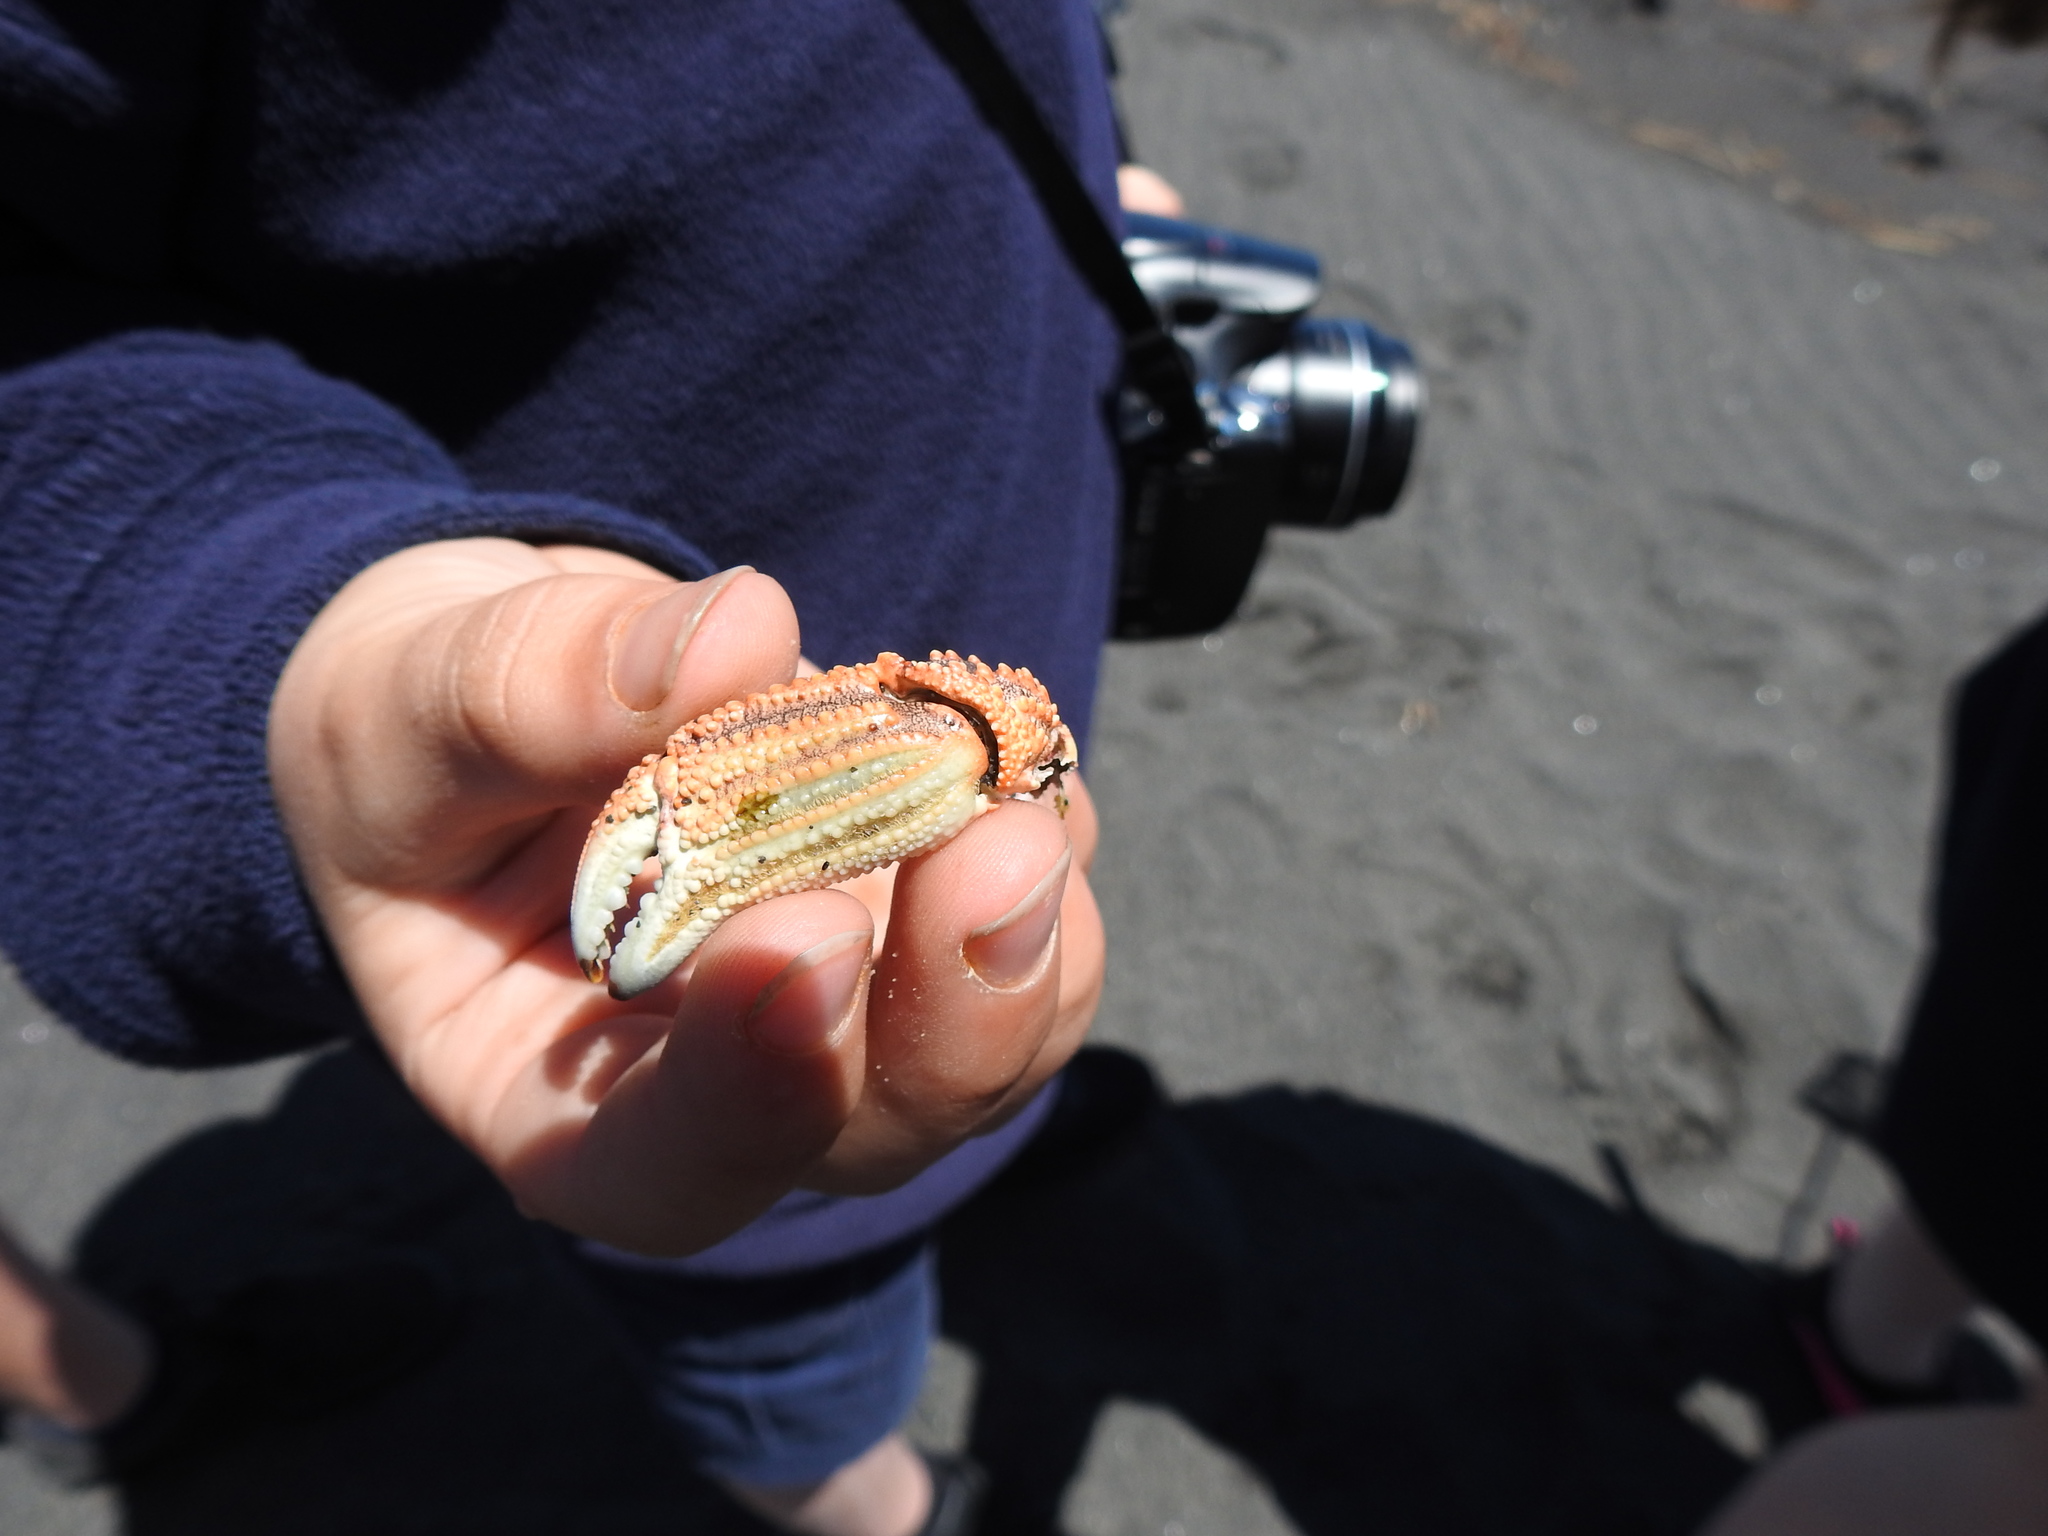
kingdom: Animalia
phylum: Arthropoda
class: Malacostraca
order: Decapoda
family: Plagusiidae
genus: Guinusia
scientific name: Guinusia chabrus
